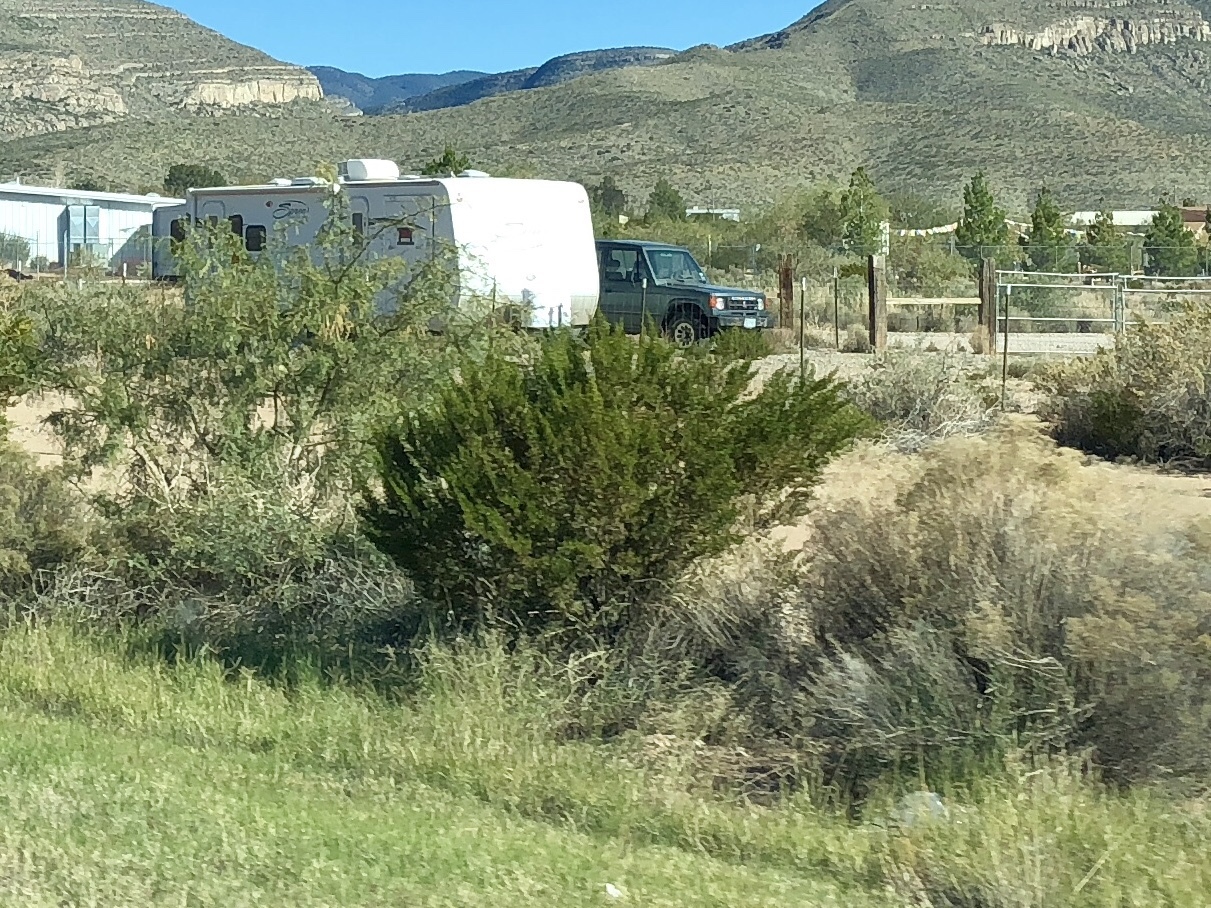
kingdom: Plantae
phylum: Tracheophyta
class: Magnoliopsida
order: Zygophyllales
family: Zygophyllaceae
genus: Larrea
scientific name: Larrea tridentata
